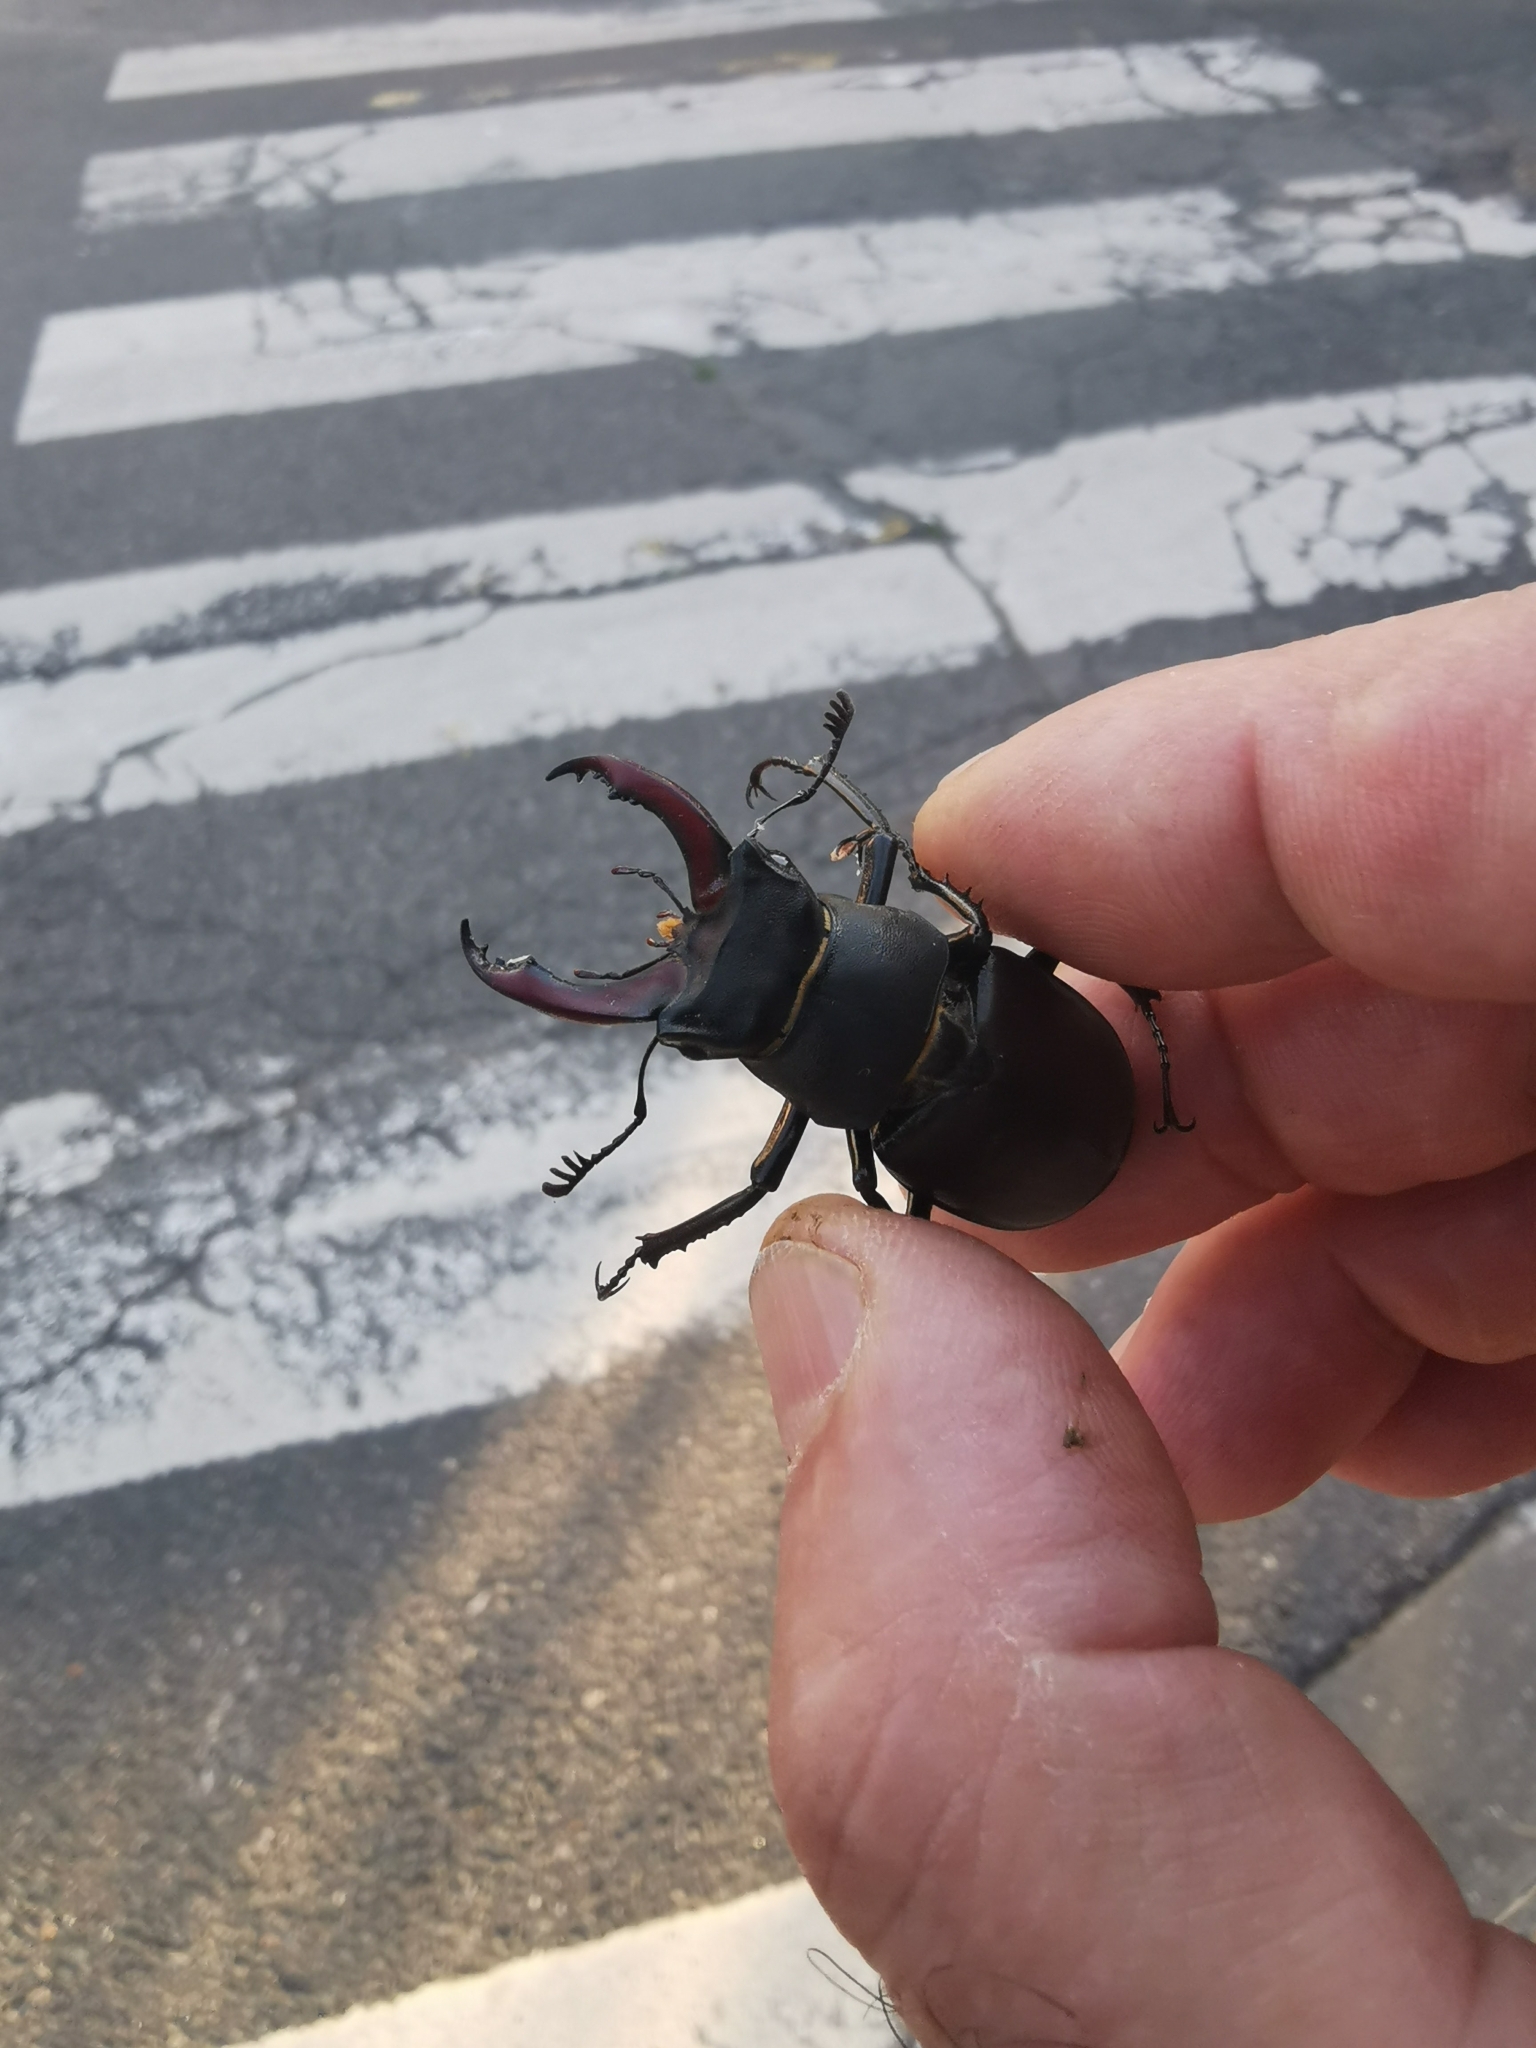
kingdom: Animalia
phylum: Arthropoda
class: Insecta
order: Coleoptera
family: Lucanidae
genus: Lucanus
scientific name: Lucanus cervus
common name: Stag beetle
